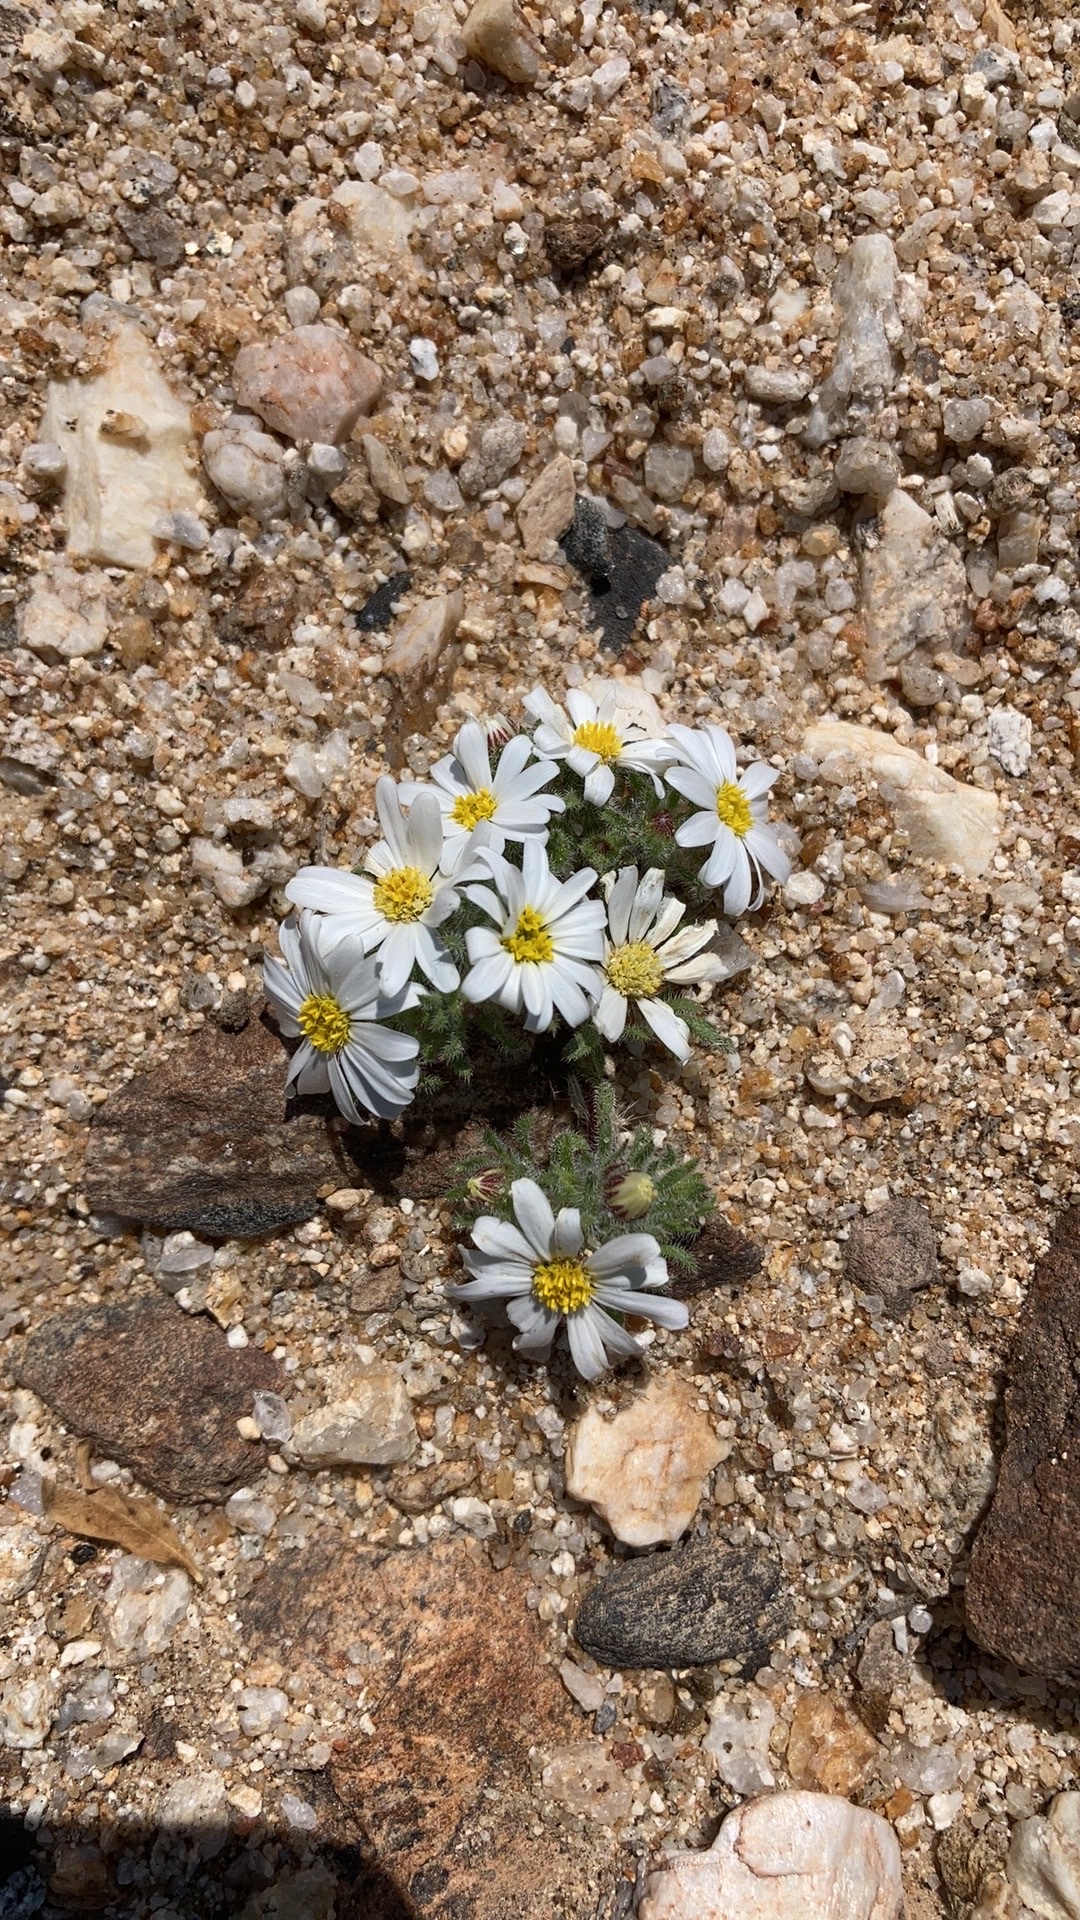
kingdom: Plantae
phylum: Tracheophyta
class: Magnoliopsida
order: Asterales
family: Asteraceae
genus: Monoptilon
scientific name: Monoptilon bellioides
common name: Bristly desertstar
